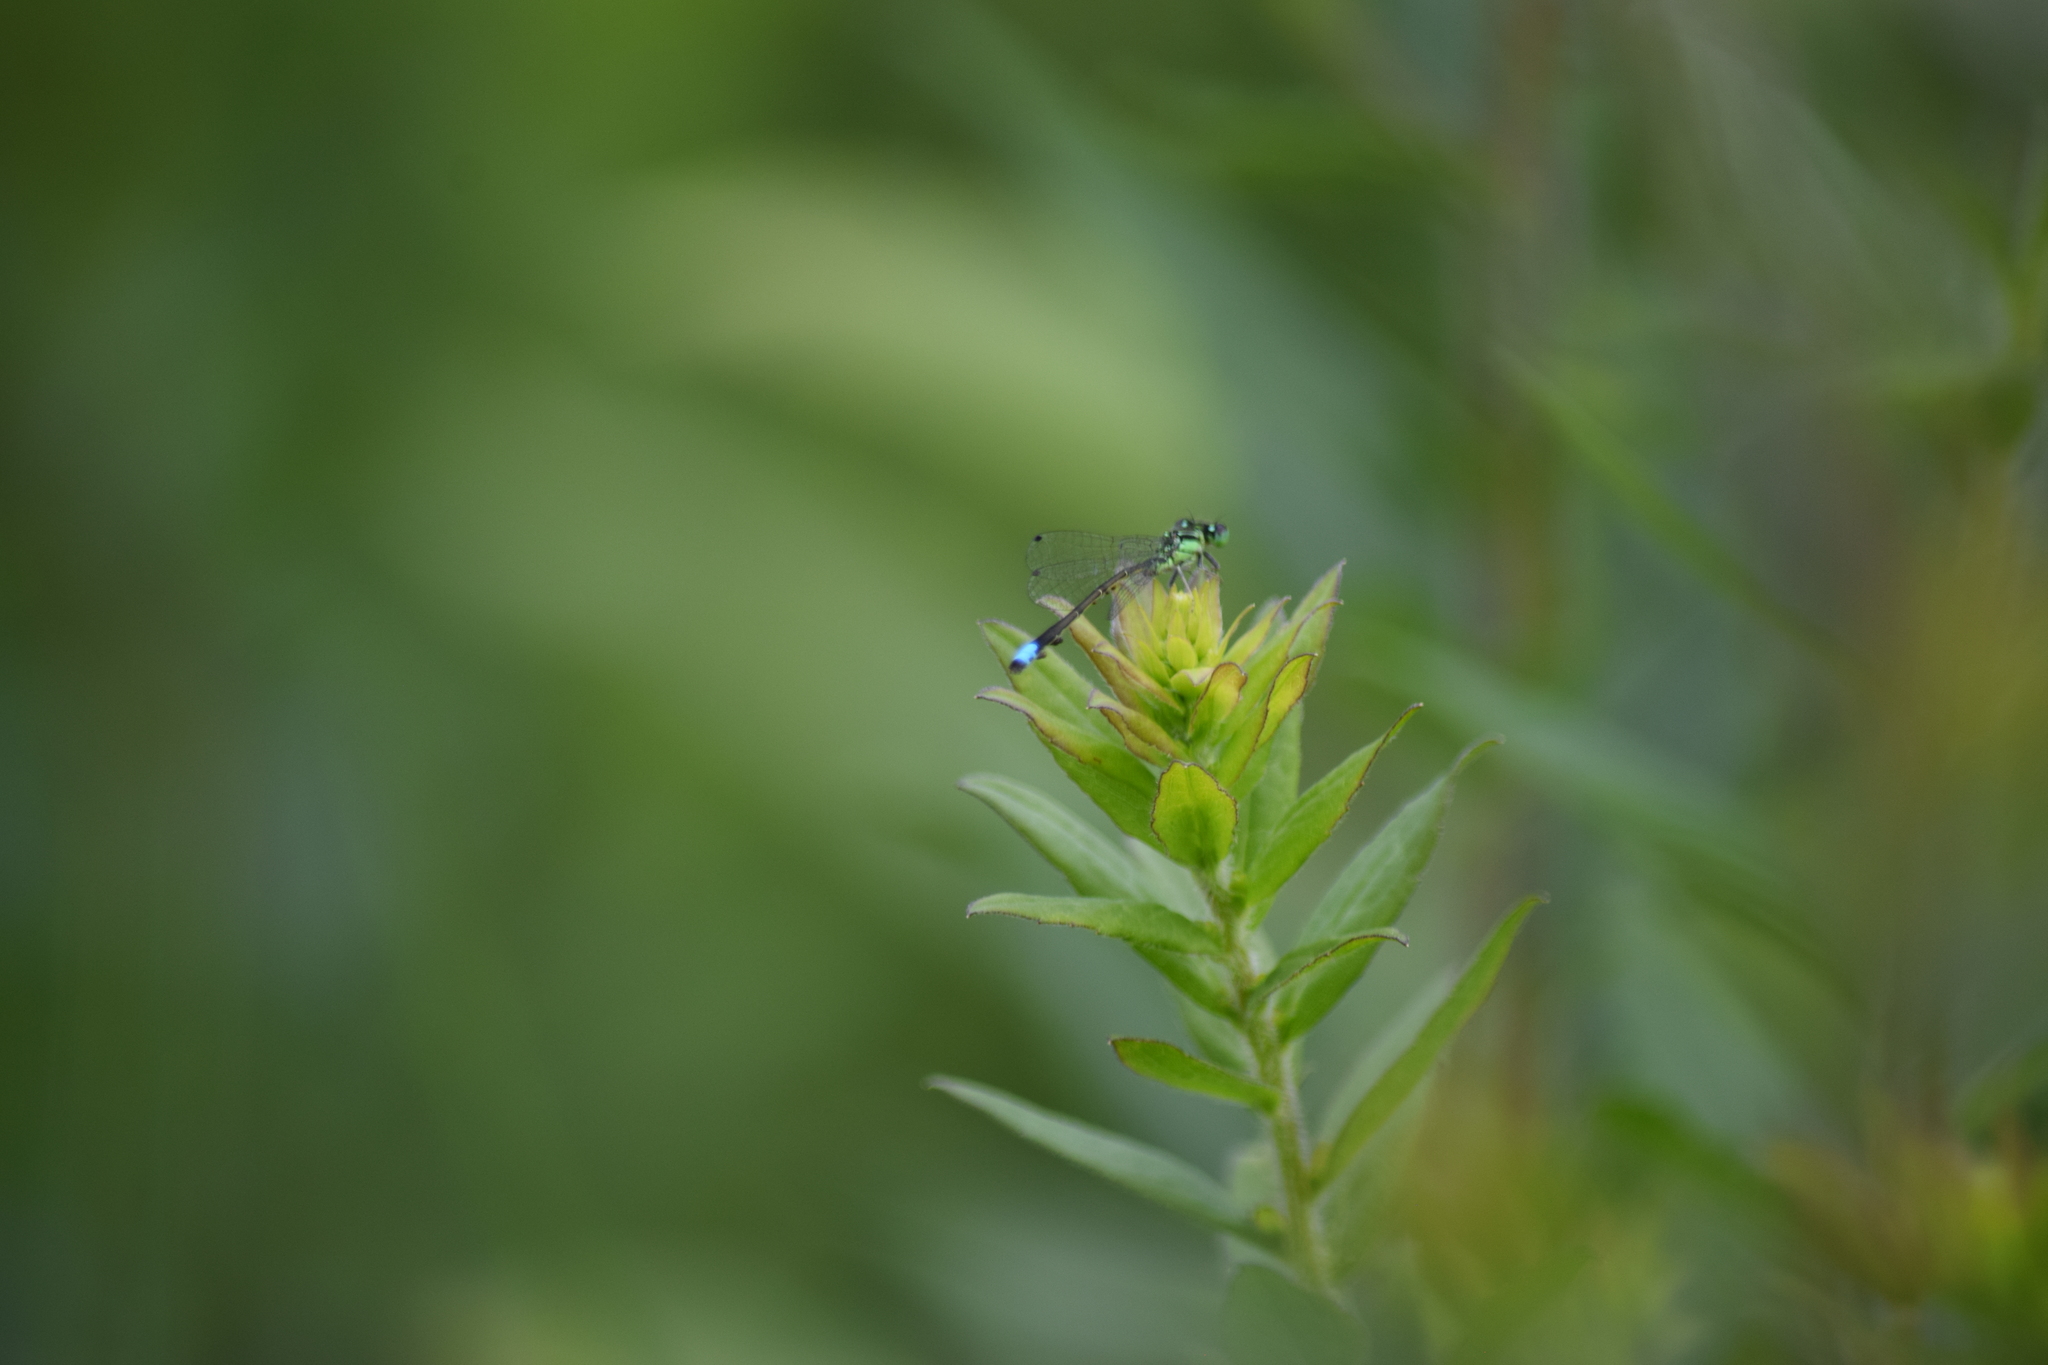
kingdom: Animalia
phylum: Arthropoda
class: Insecta
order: Odonata
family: Coenagrionidae
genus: Ischnura
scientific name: Ischnura verticalis
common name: Eastern forktail
